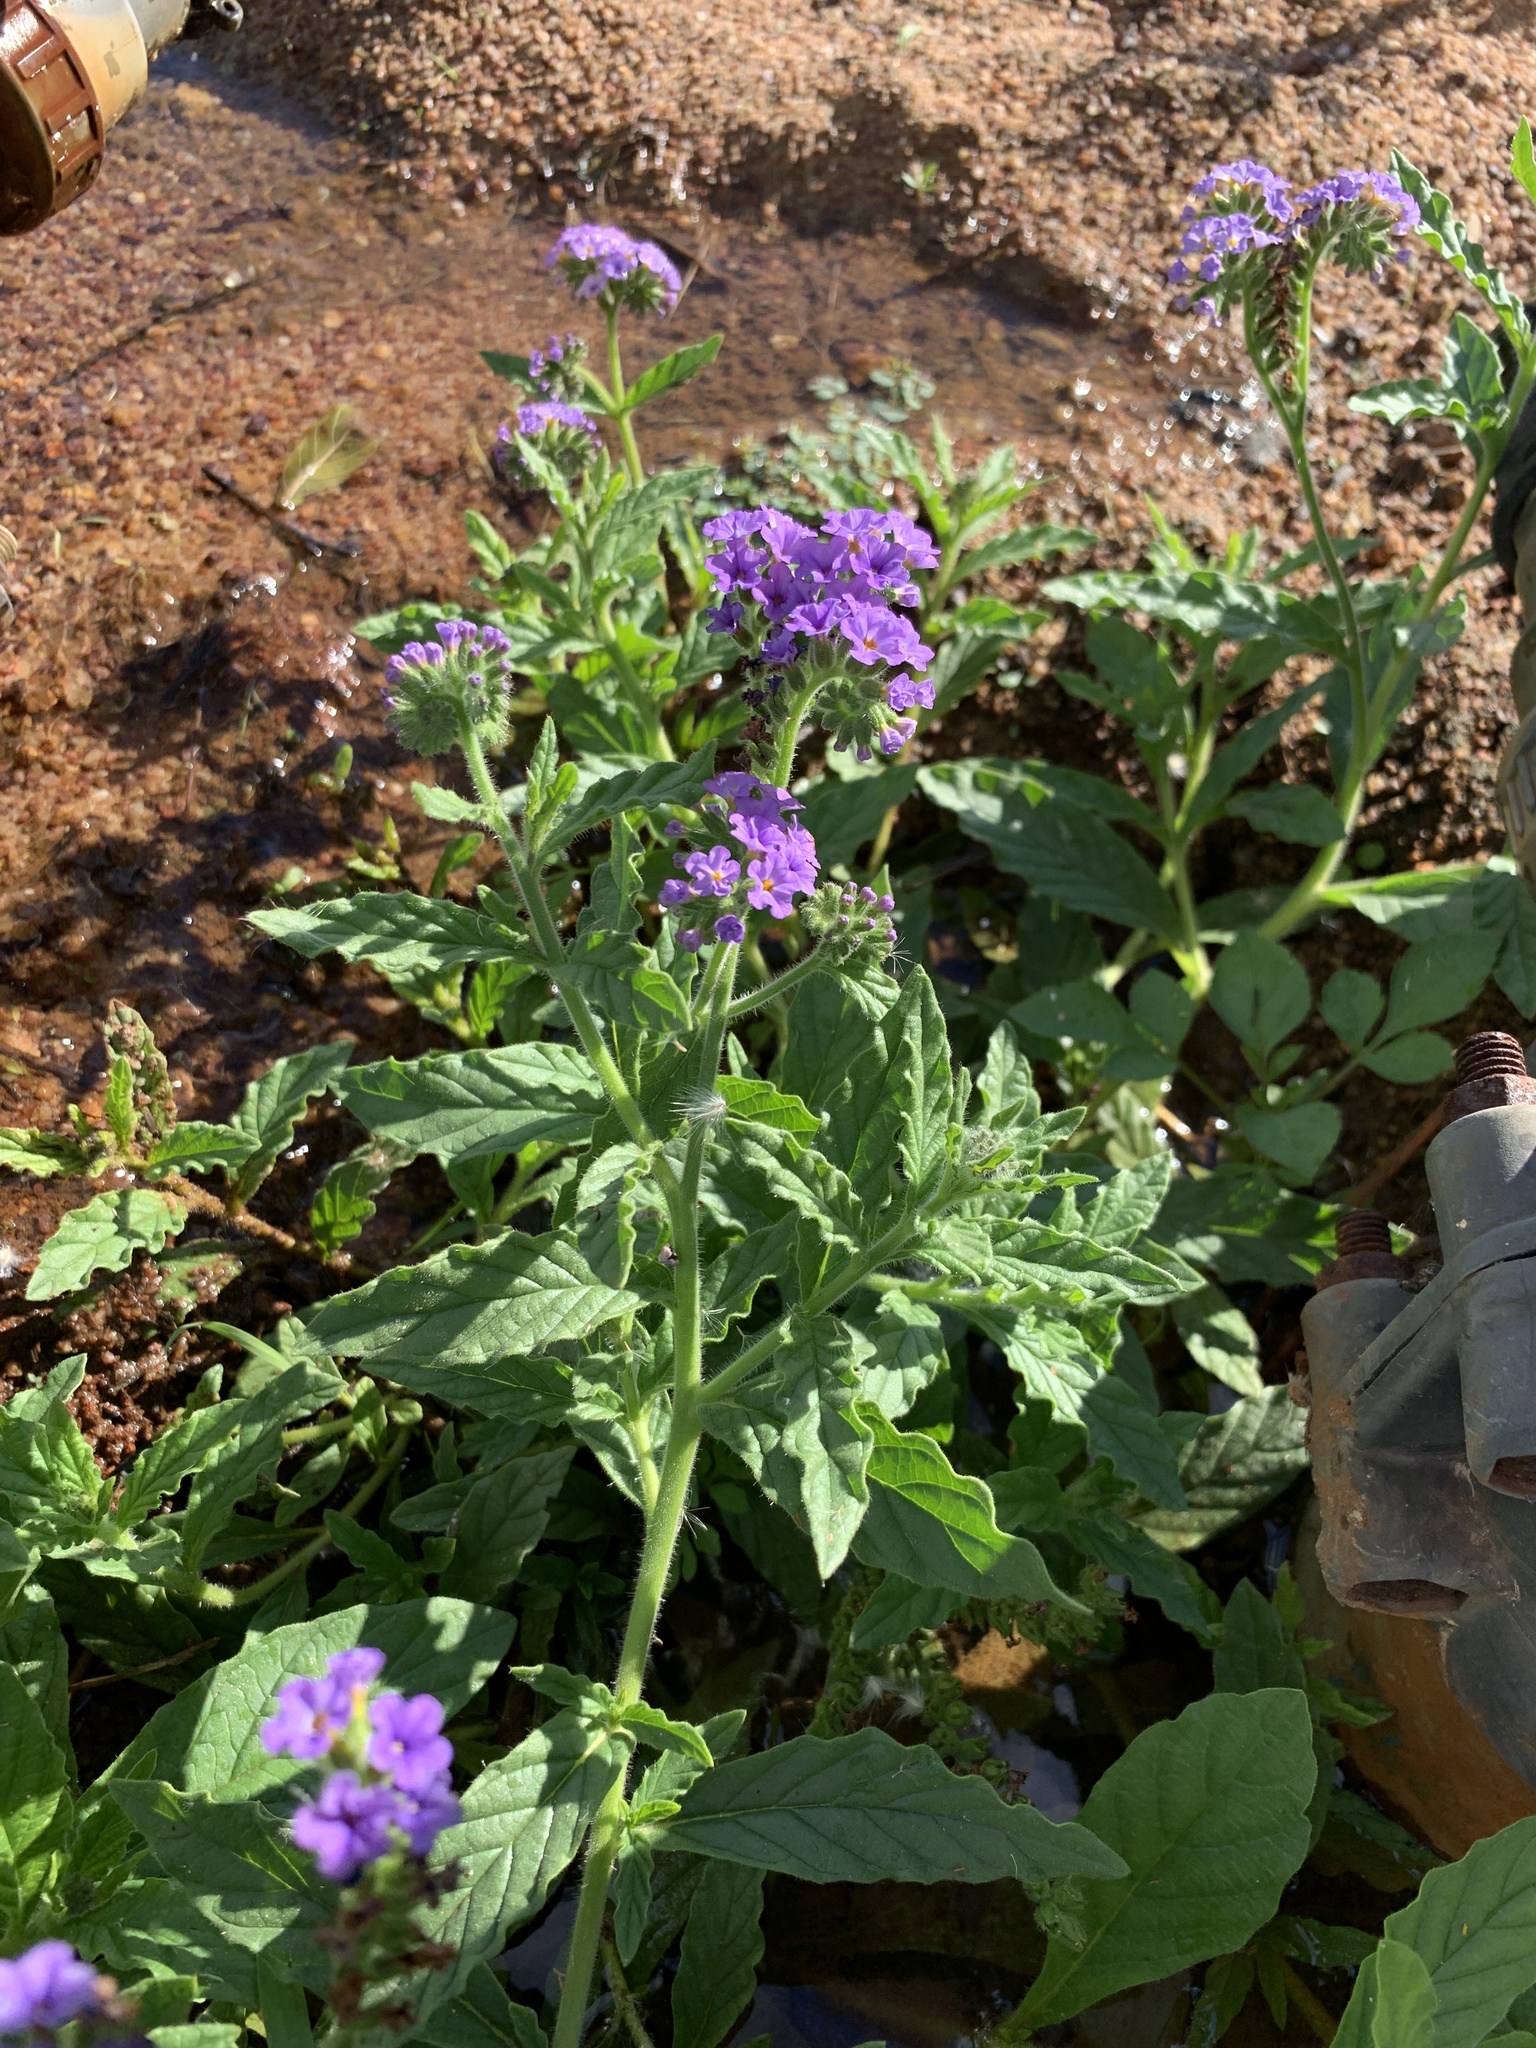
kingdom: Plantae
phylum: Tracheophyta
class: Magnoliopsida
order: Boraginales
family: Heliotropiaceae
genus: Heliotropium
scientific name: Heliotropium amplexicaule
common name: Clasping heliotrope
